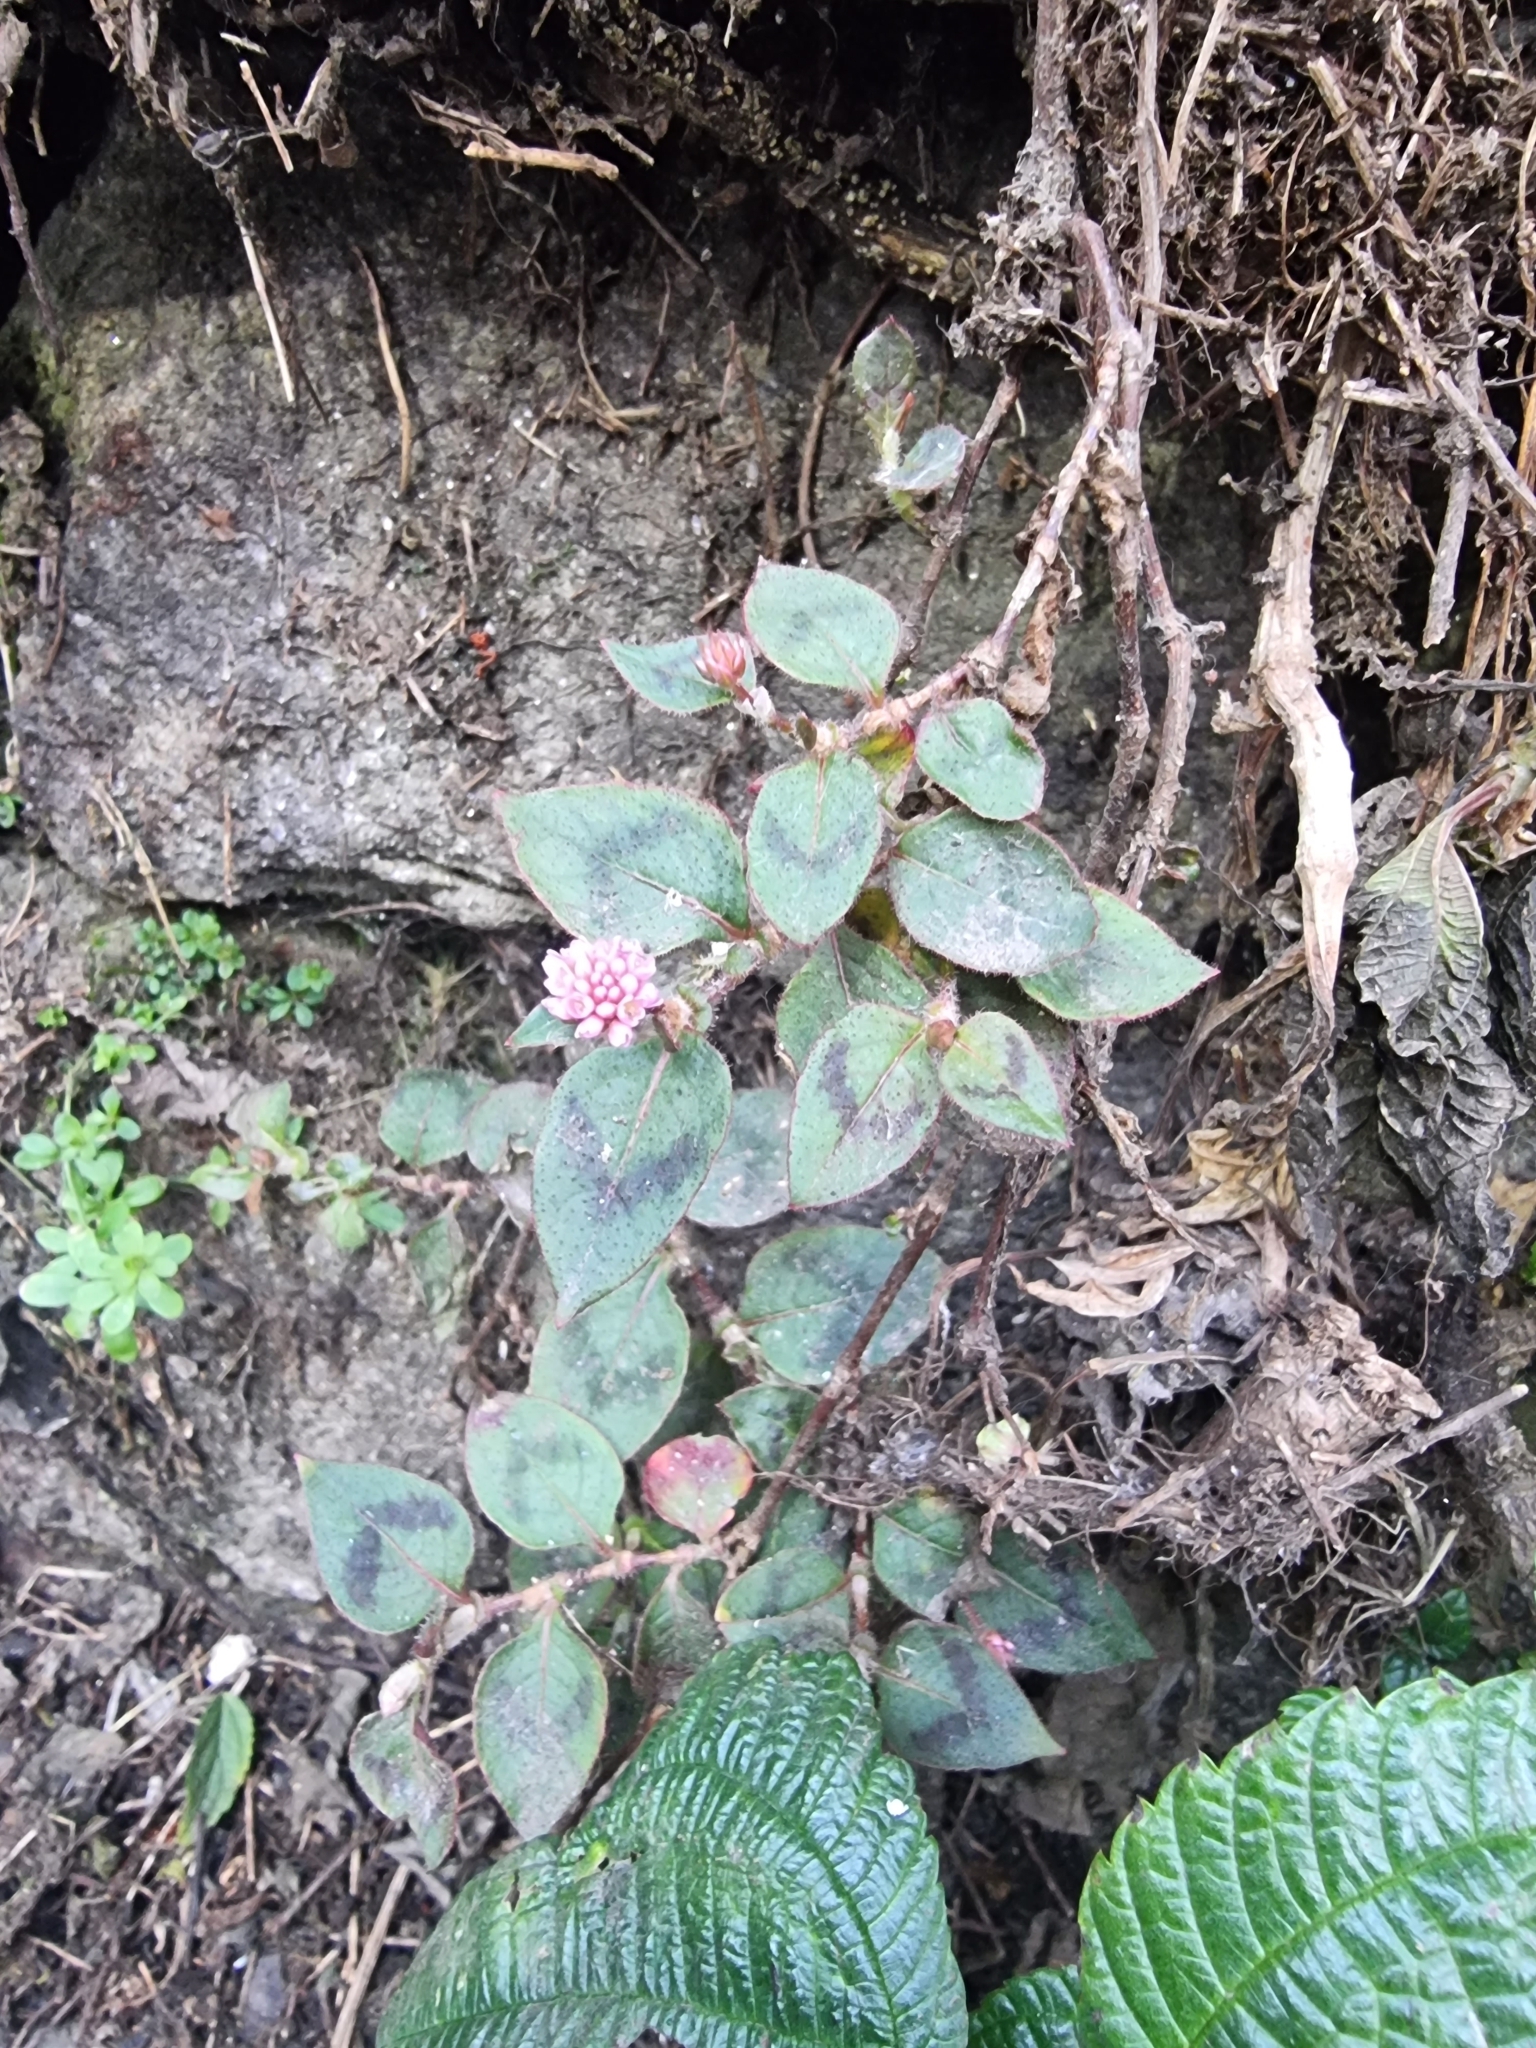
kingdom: Plantae
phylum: Tracheophyta
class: Magnoliopsida
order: Caryophyllales
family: Polygonaceae
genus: Persicaria
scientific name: Persicaria capitata
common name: Pinkhead smartweed
